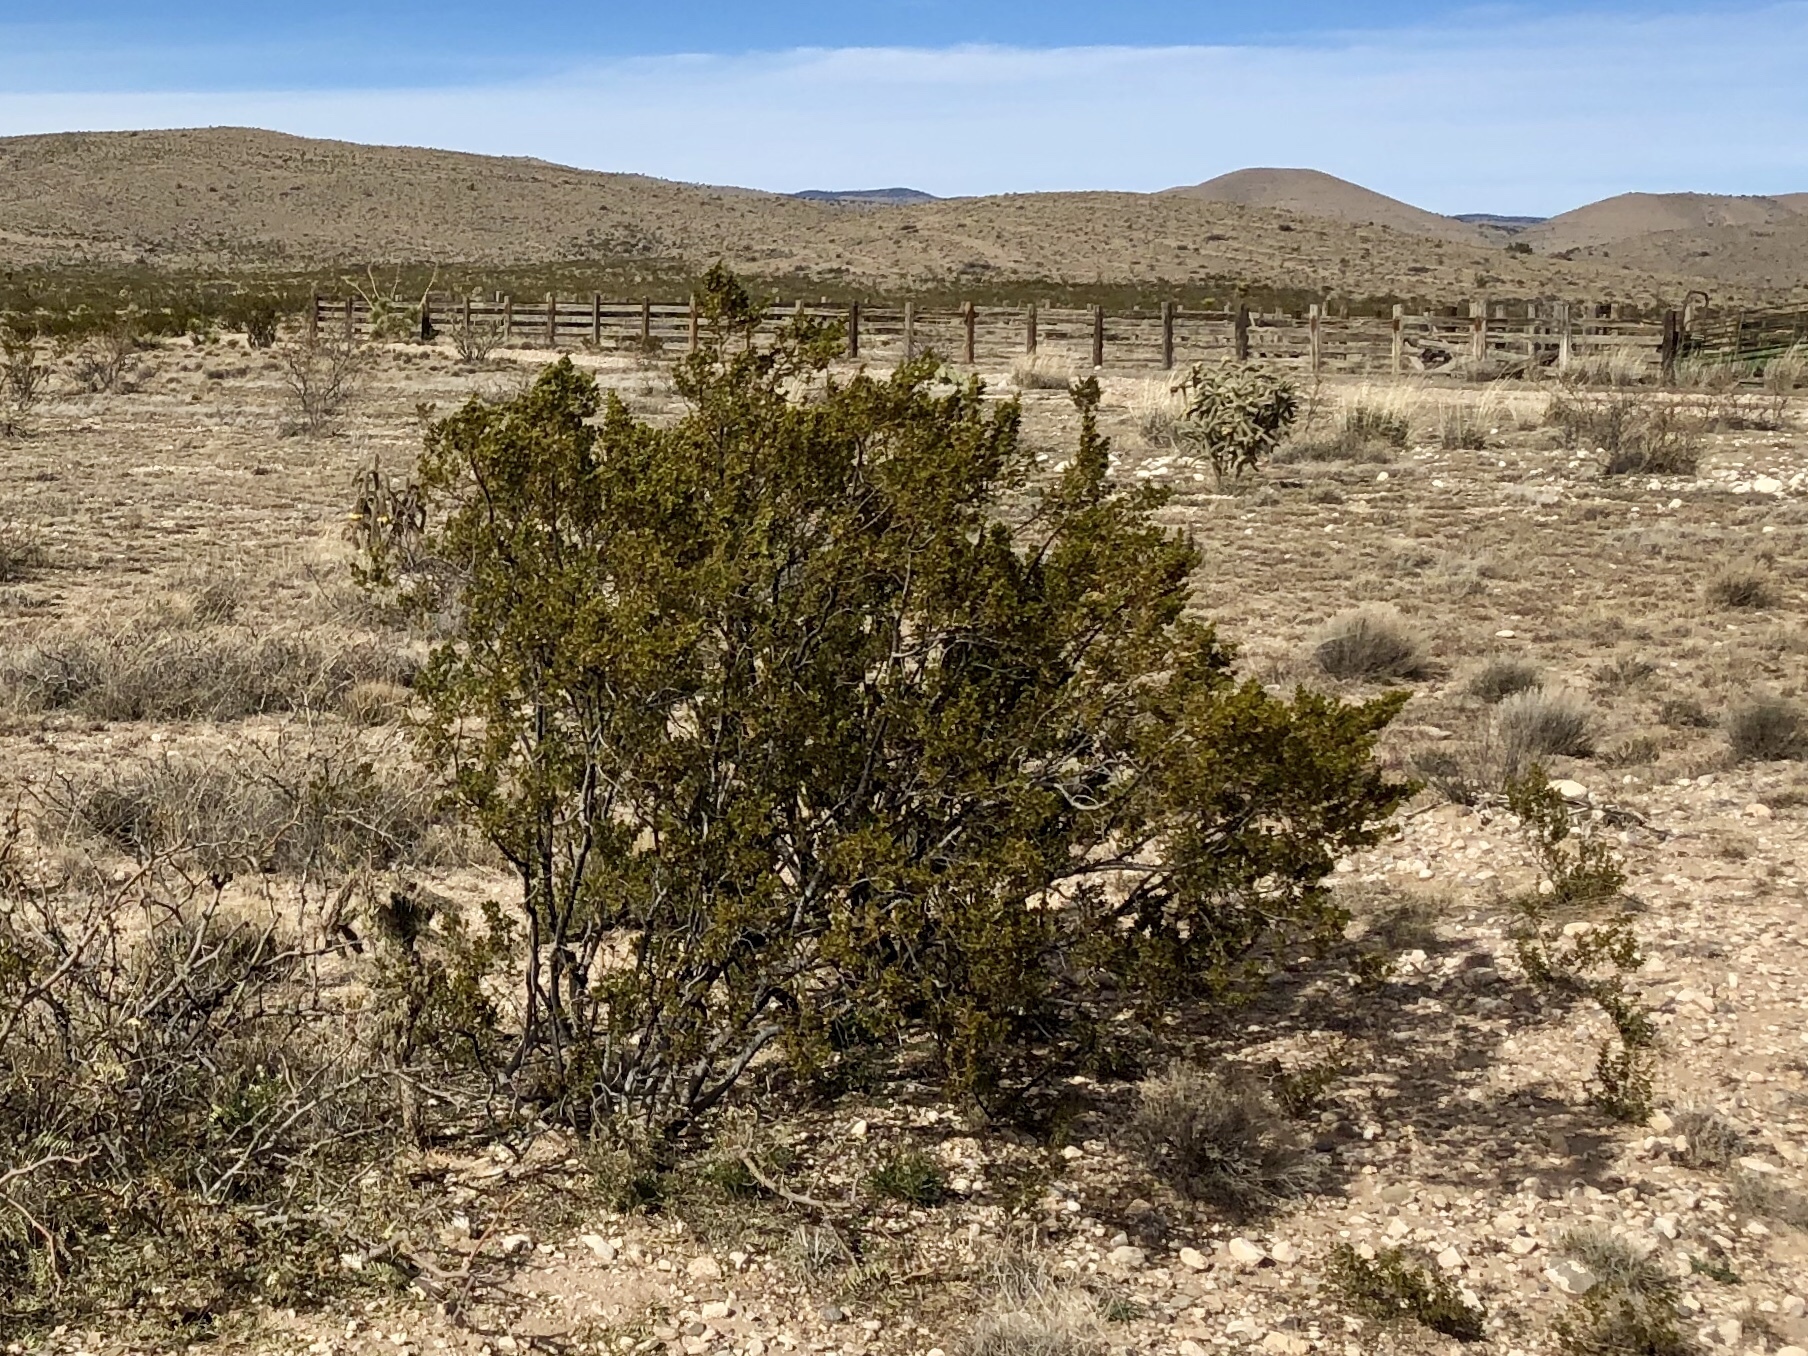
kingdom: Plantae
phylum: Tracheophyta
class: Magnoliopsida
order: Zygophyllales
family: Zygophyllaceae
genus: Larrea
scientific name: Larrea tridentata
